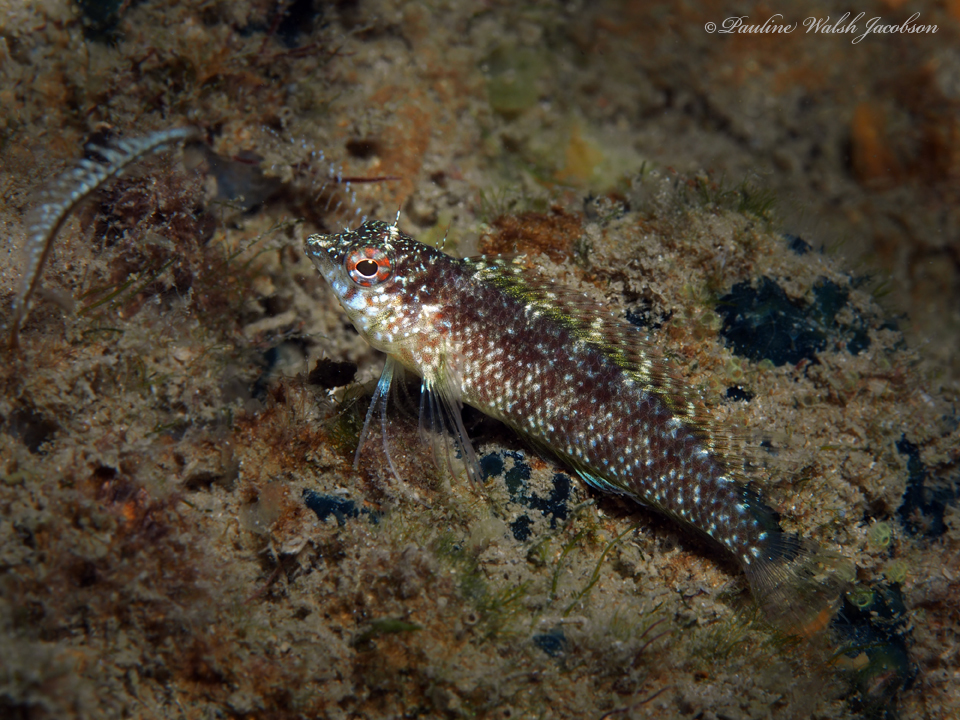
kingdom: Animalia
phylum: Chordata
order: Perciformes
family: Labrisomidae
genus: Malacoctenus
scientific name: Malacoctenus macropus
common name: Rosy blenny
